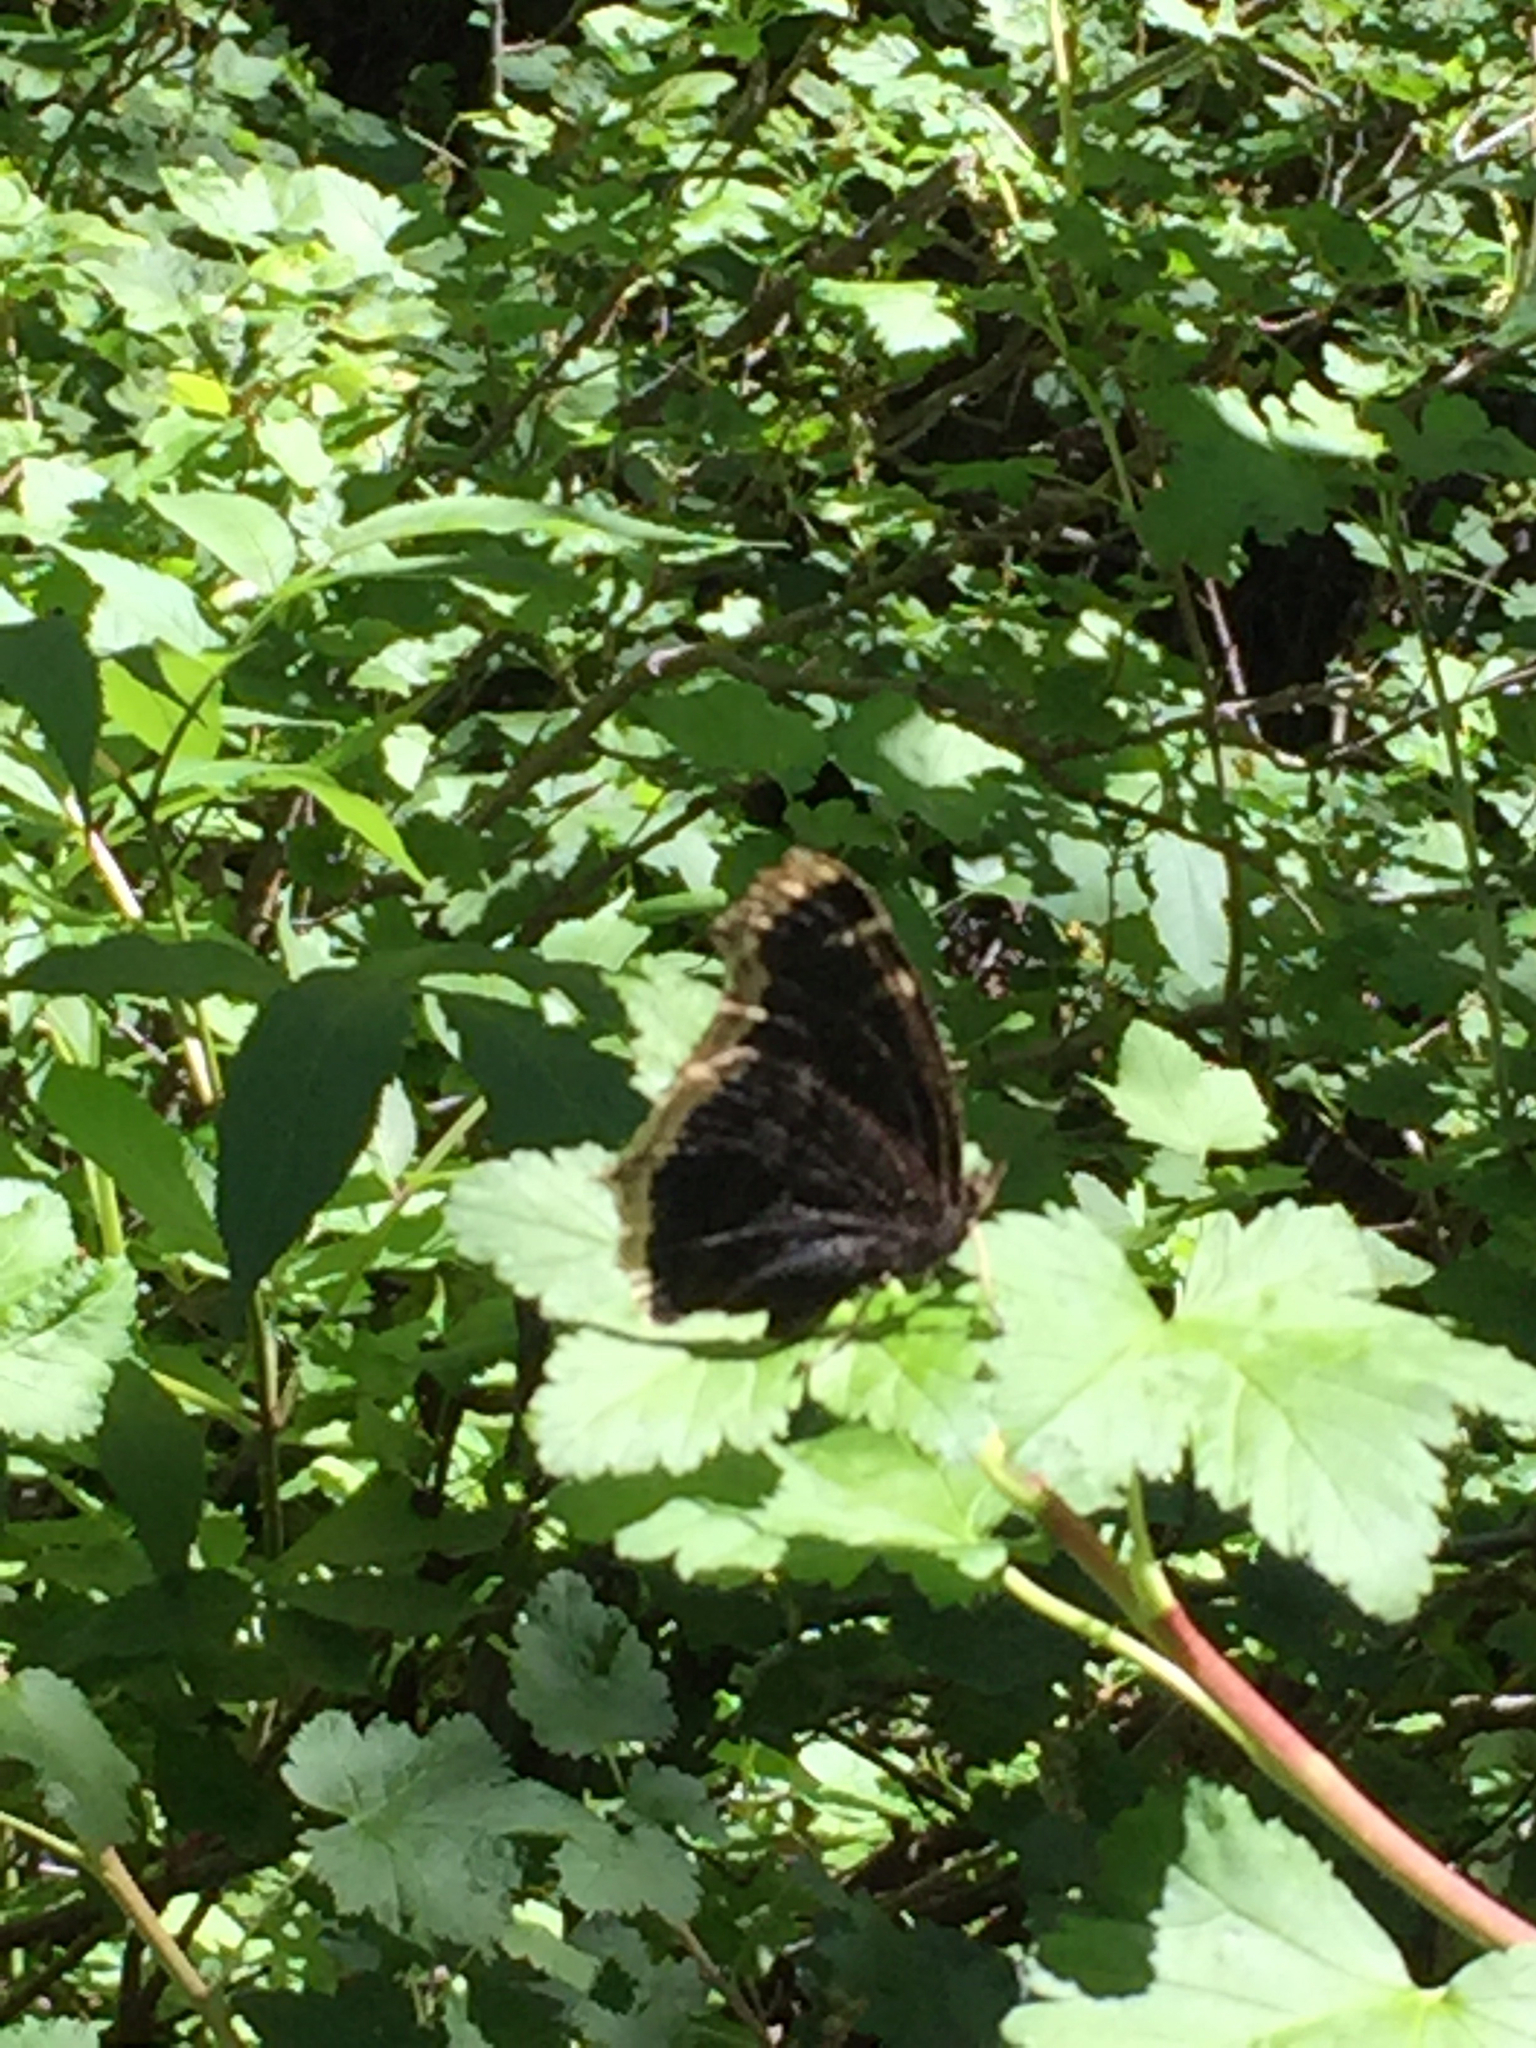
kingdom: Animalia
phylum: Arthropoda
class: Insecta
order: Lepidoptera
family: Nymphalidae
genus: Nymphalis
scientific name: Nymphalis antiopa
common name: Camberwell beauty
